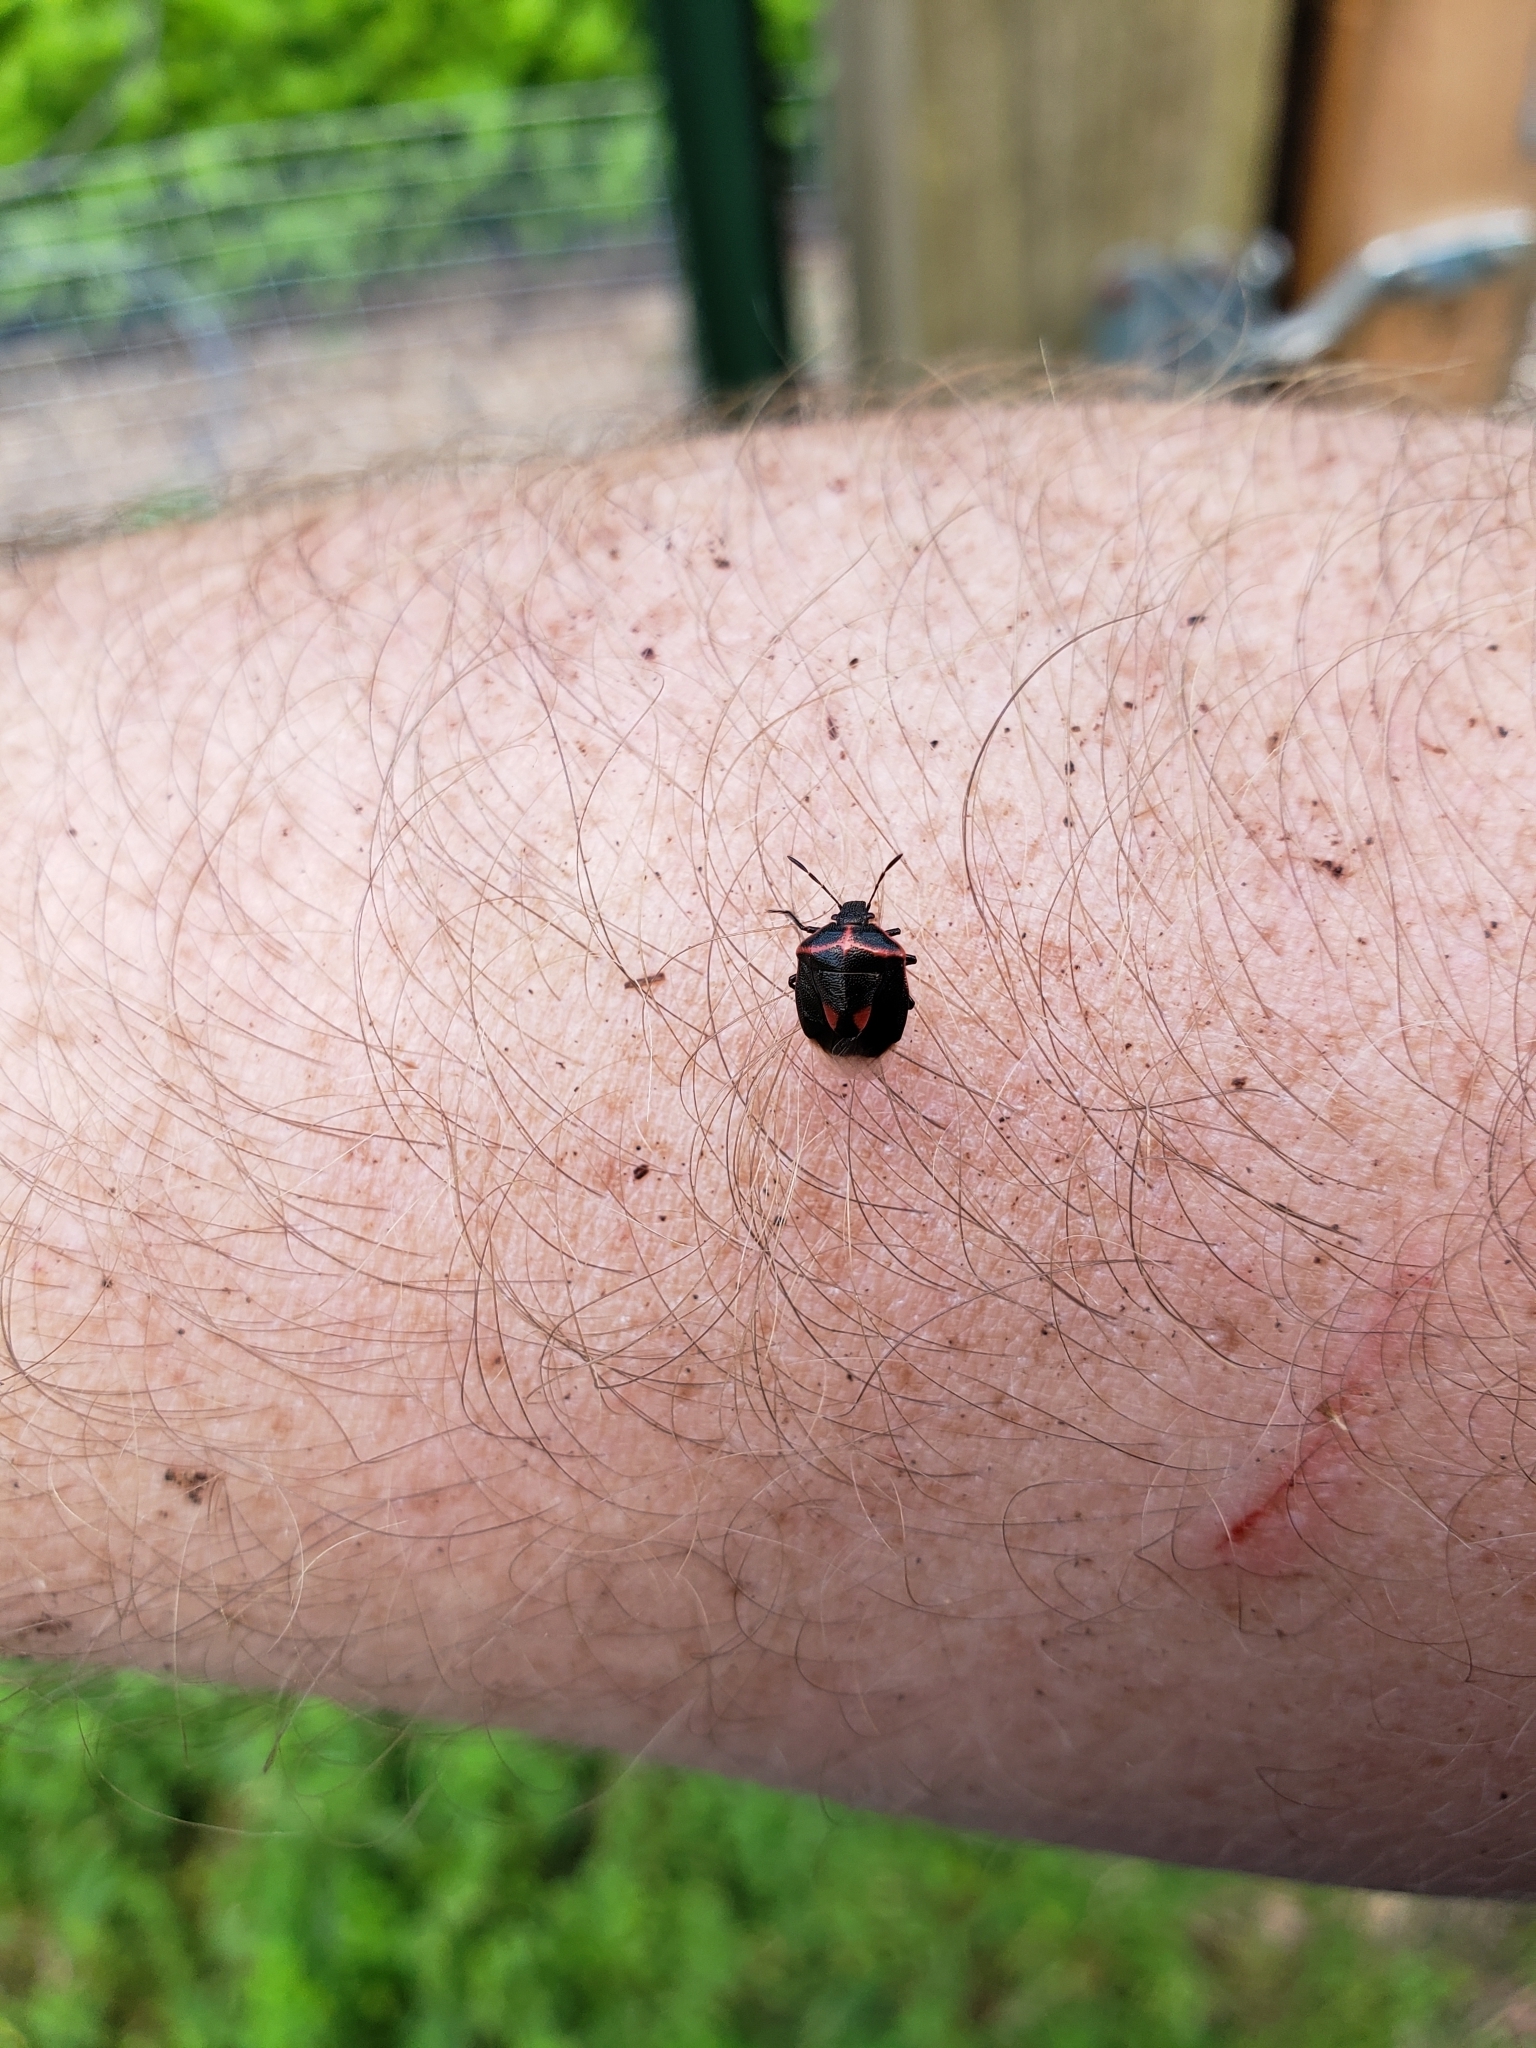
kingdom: Animalia
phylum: Arthropoda
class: Insecta
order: Hemiptera
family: Pentatomidae
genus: Cosmopepla
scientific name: Cosmopepla lintneriana
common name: Twice-stabbed stink bug
